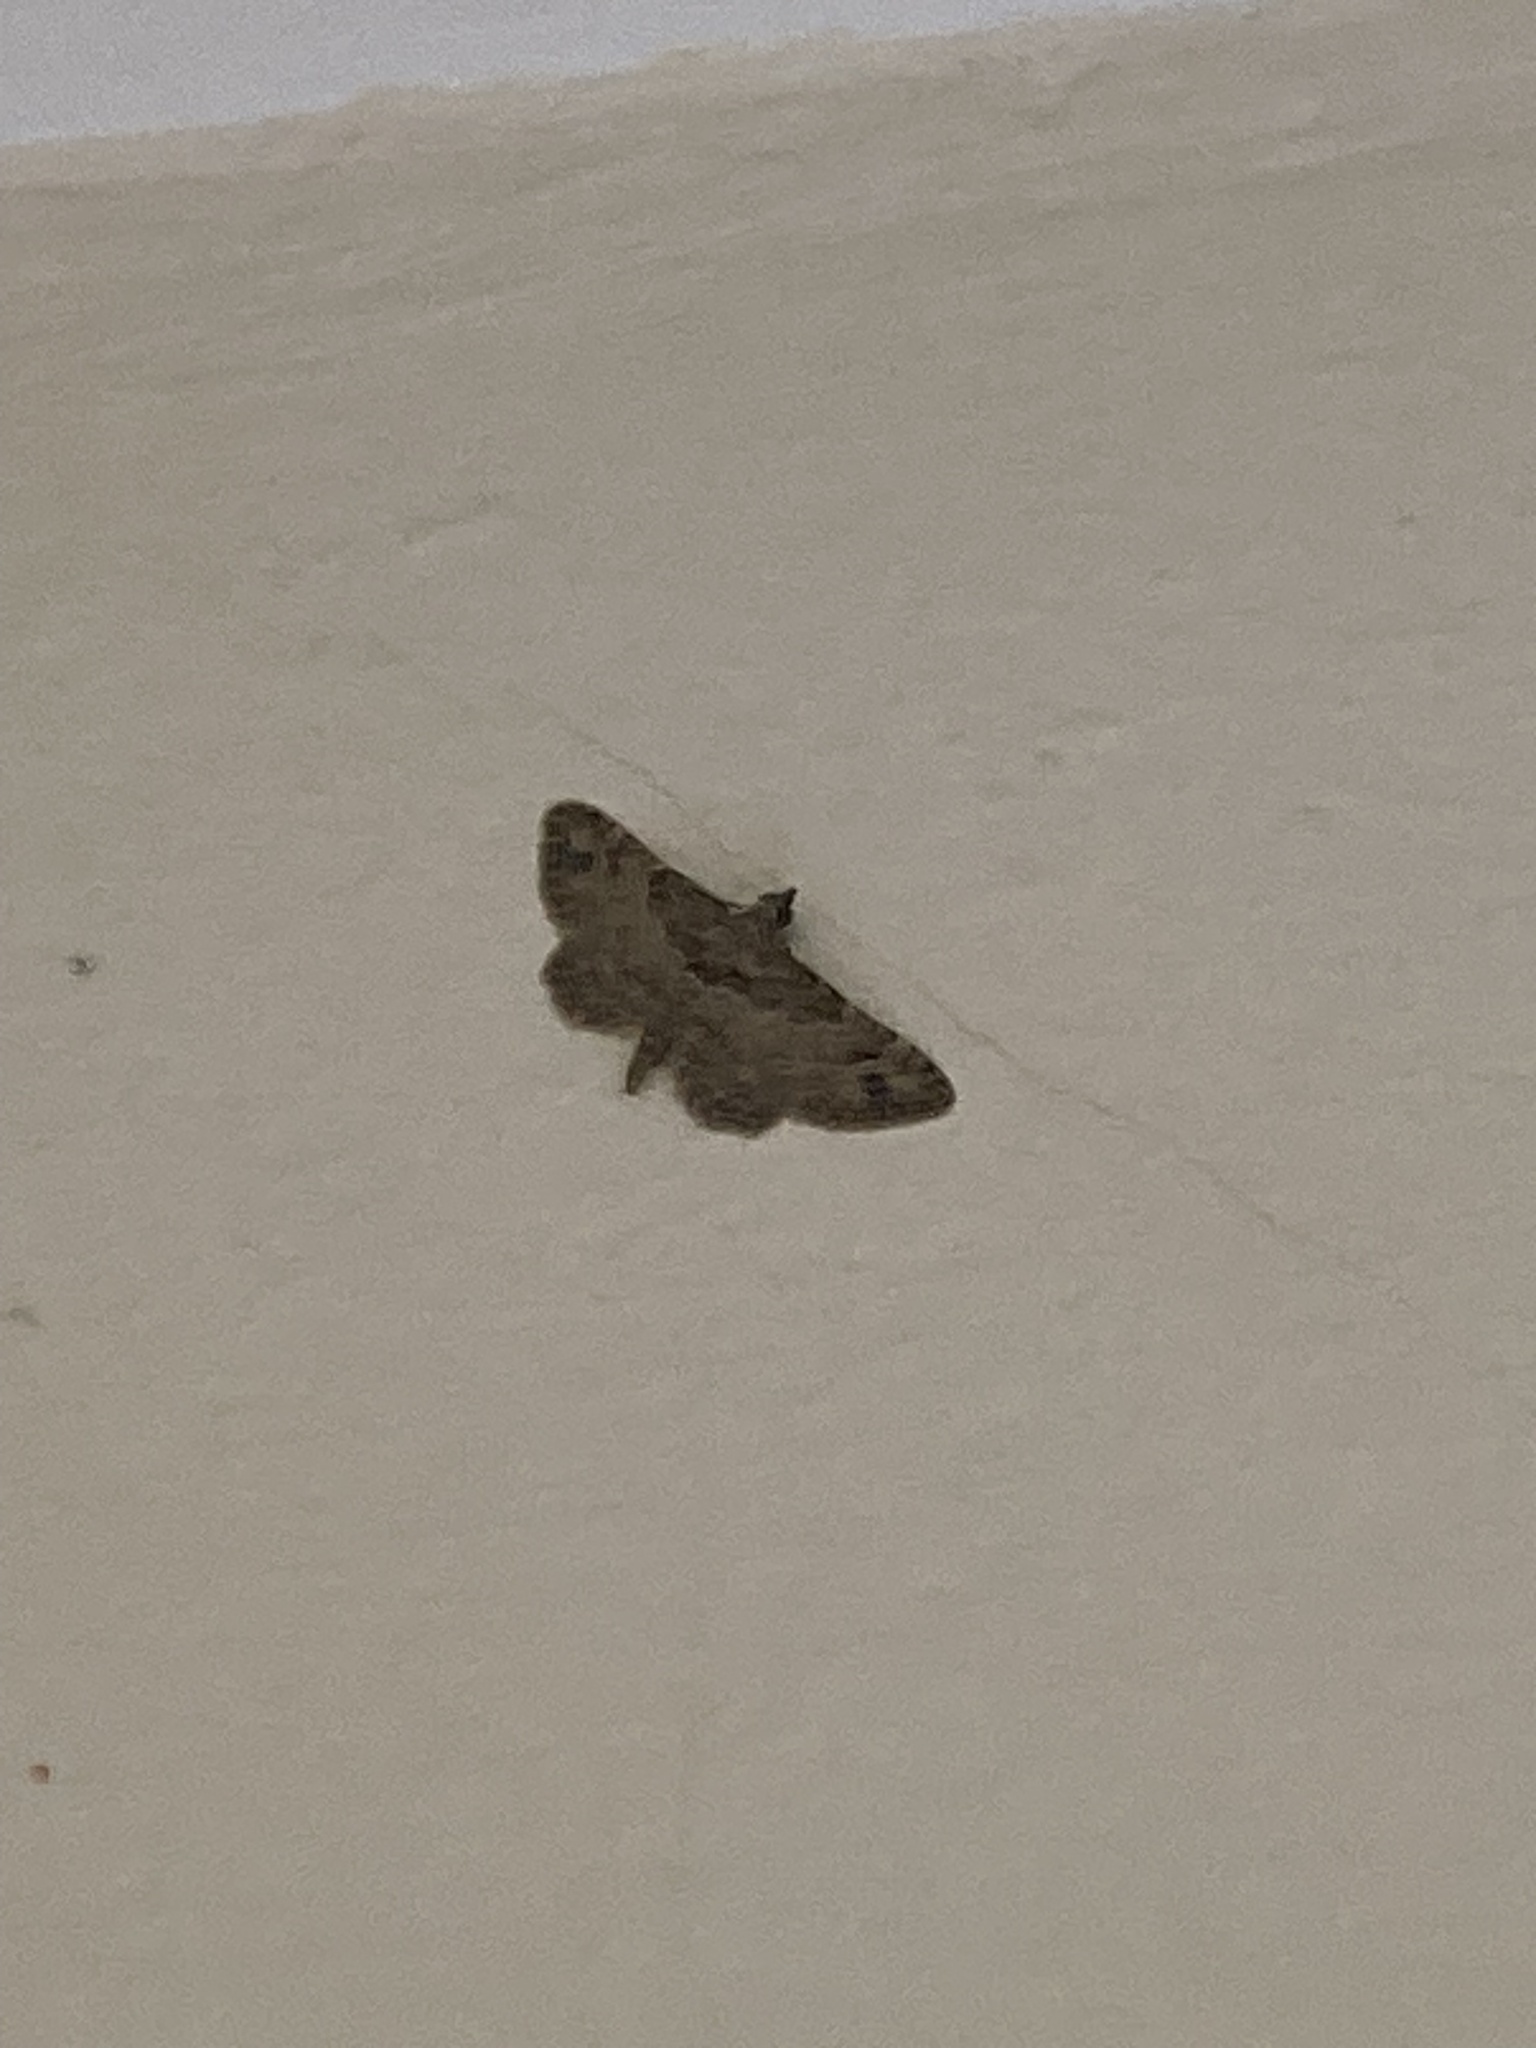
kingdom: Animalia
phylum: Arthropoda
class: Insecta
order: Lepidoptera
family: Geometridae
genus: Gymnoscelis
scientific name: Gymnoscelis rufifasciata
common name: Double-striped pug
